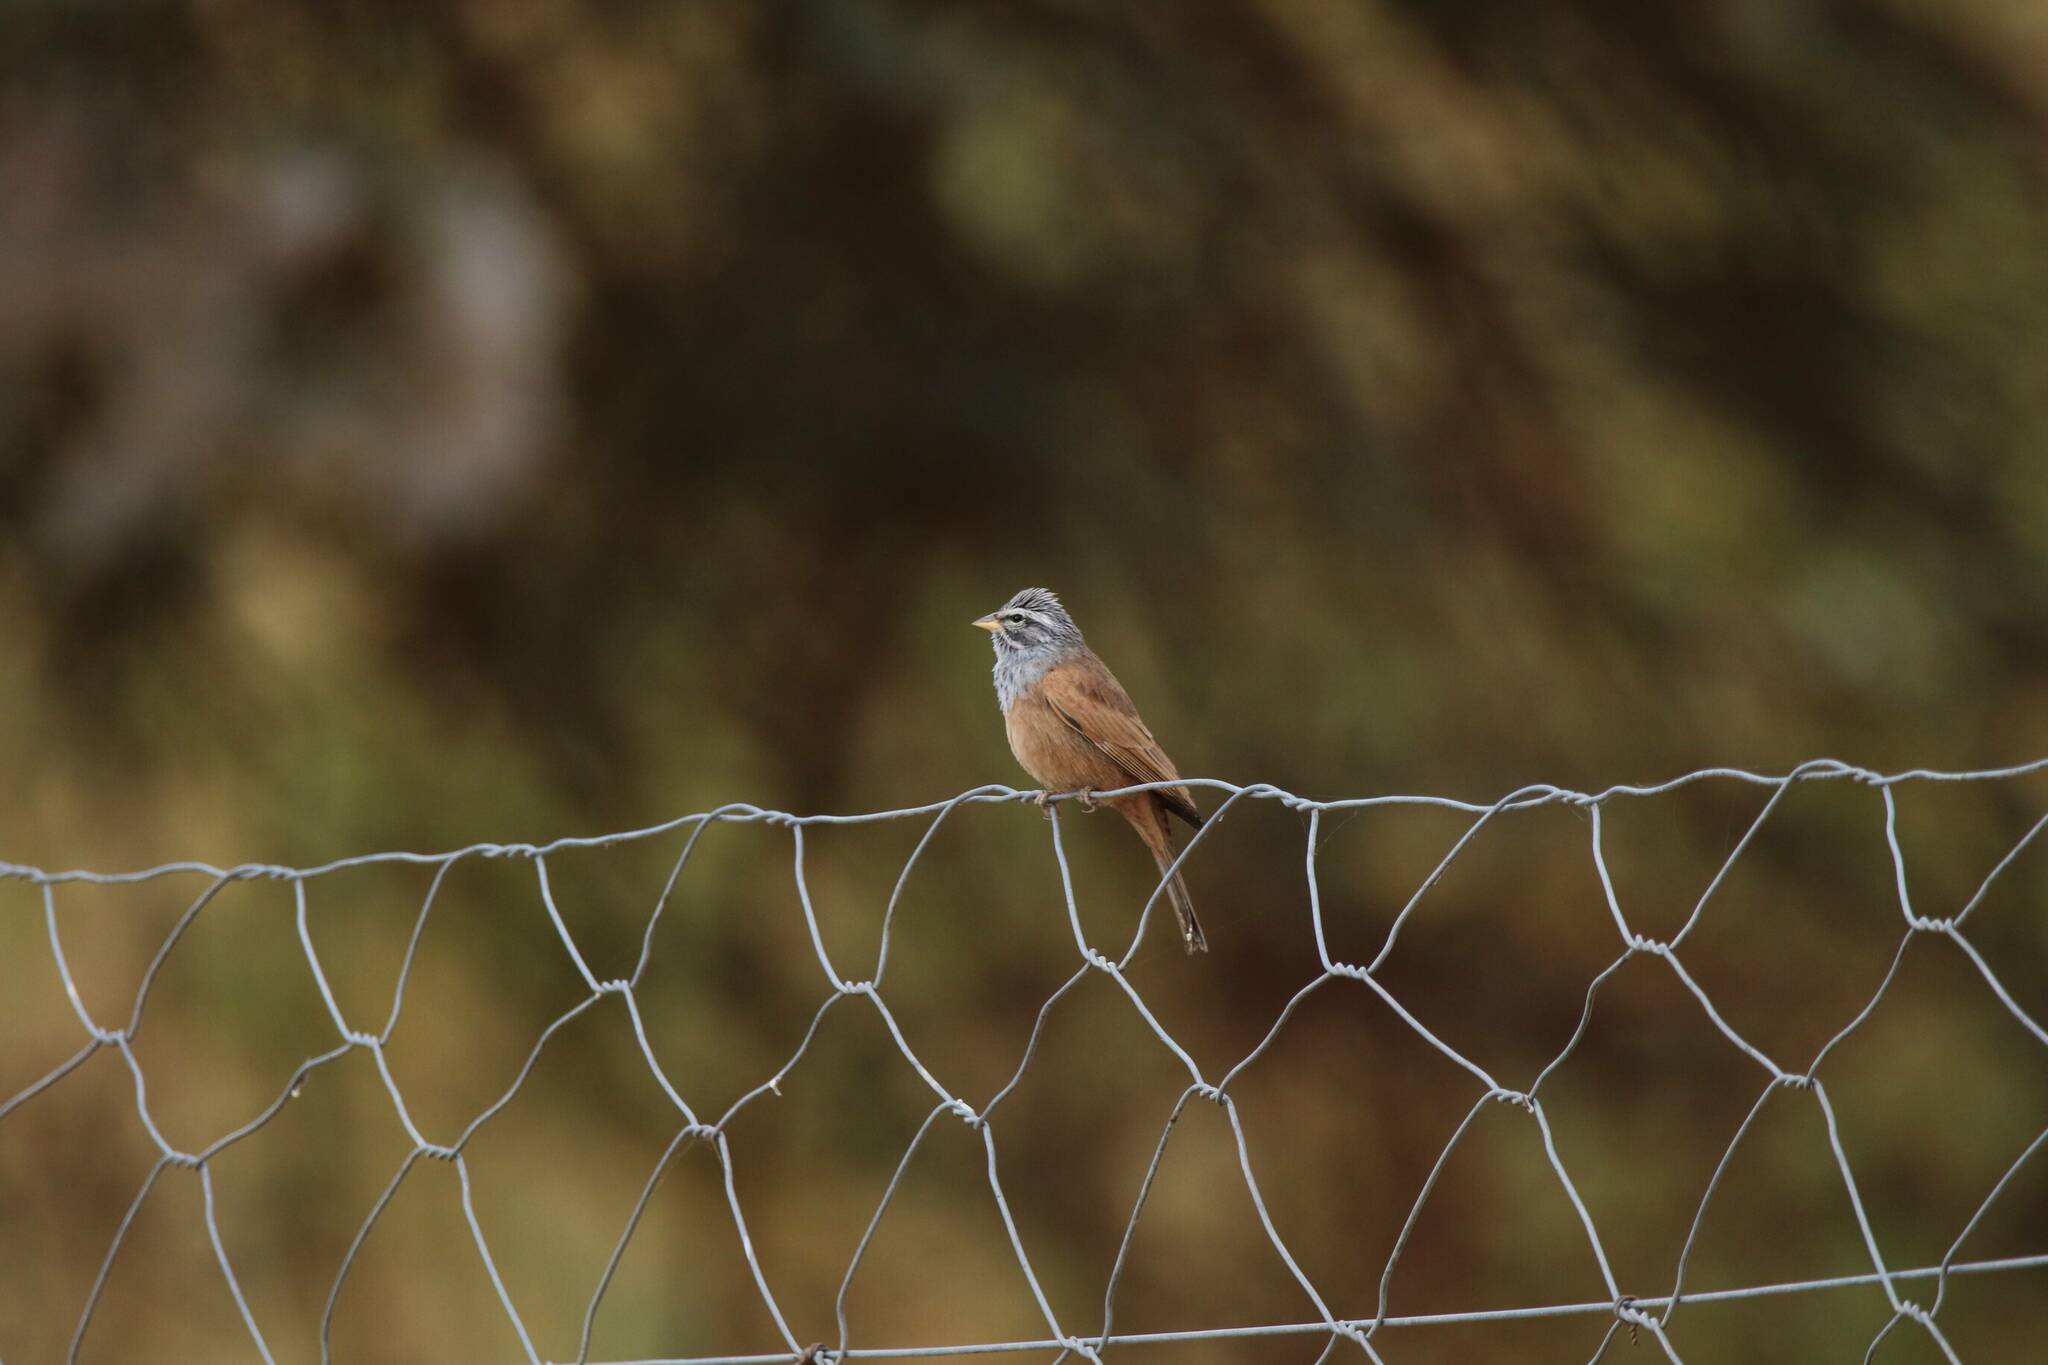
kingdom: Animalia
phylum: Chordata
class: Aves
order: Passeriformes
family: Emberizidae
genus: Emberiza
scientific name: Emberiza sahari
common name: House bunting
